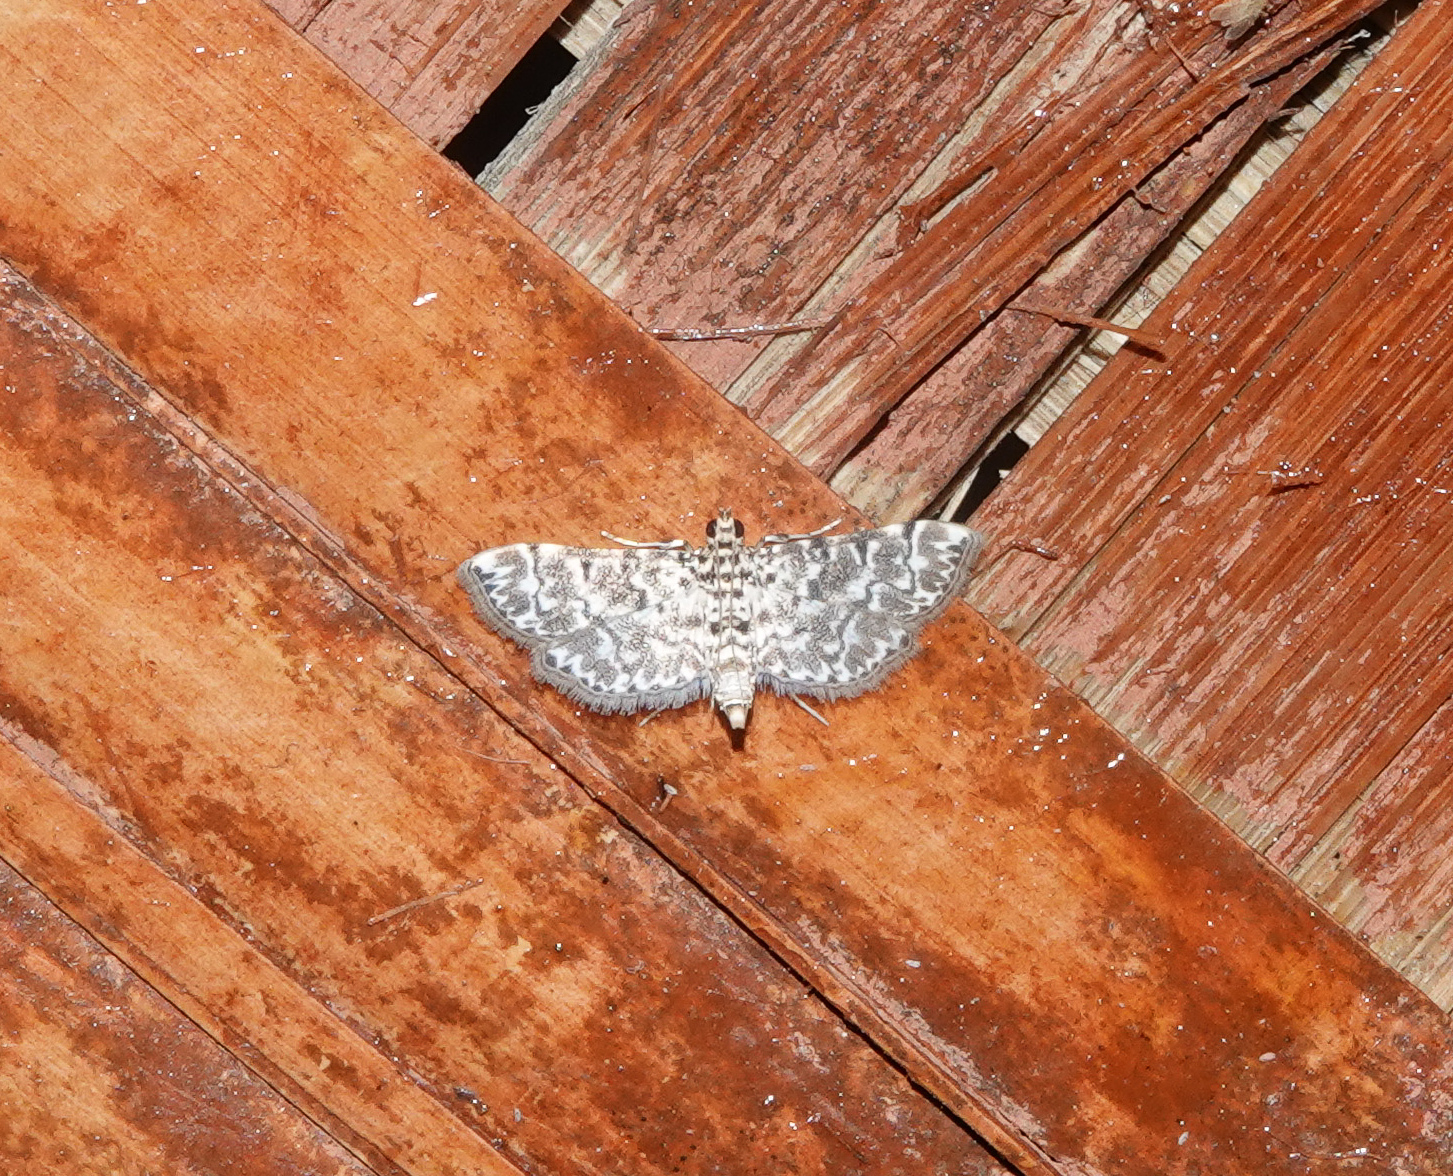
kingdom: Animalia
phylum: Arthropoda
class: Insecta
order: Lepidoptera
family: Crambidae
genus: Metoeca
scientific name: Metoeca foedalis
